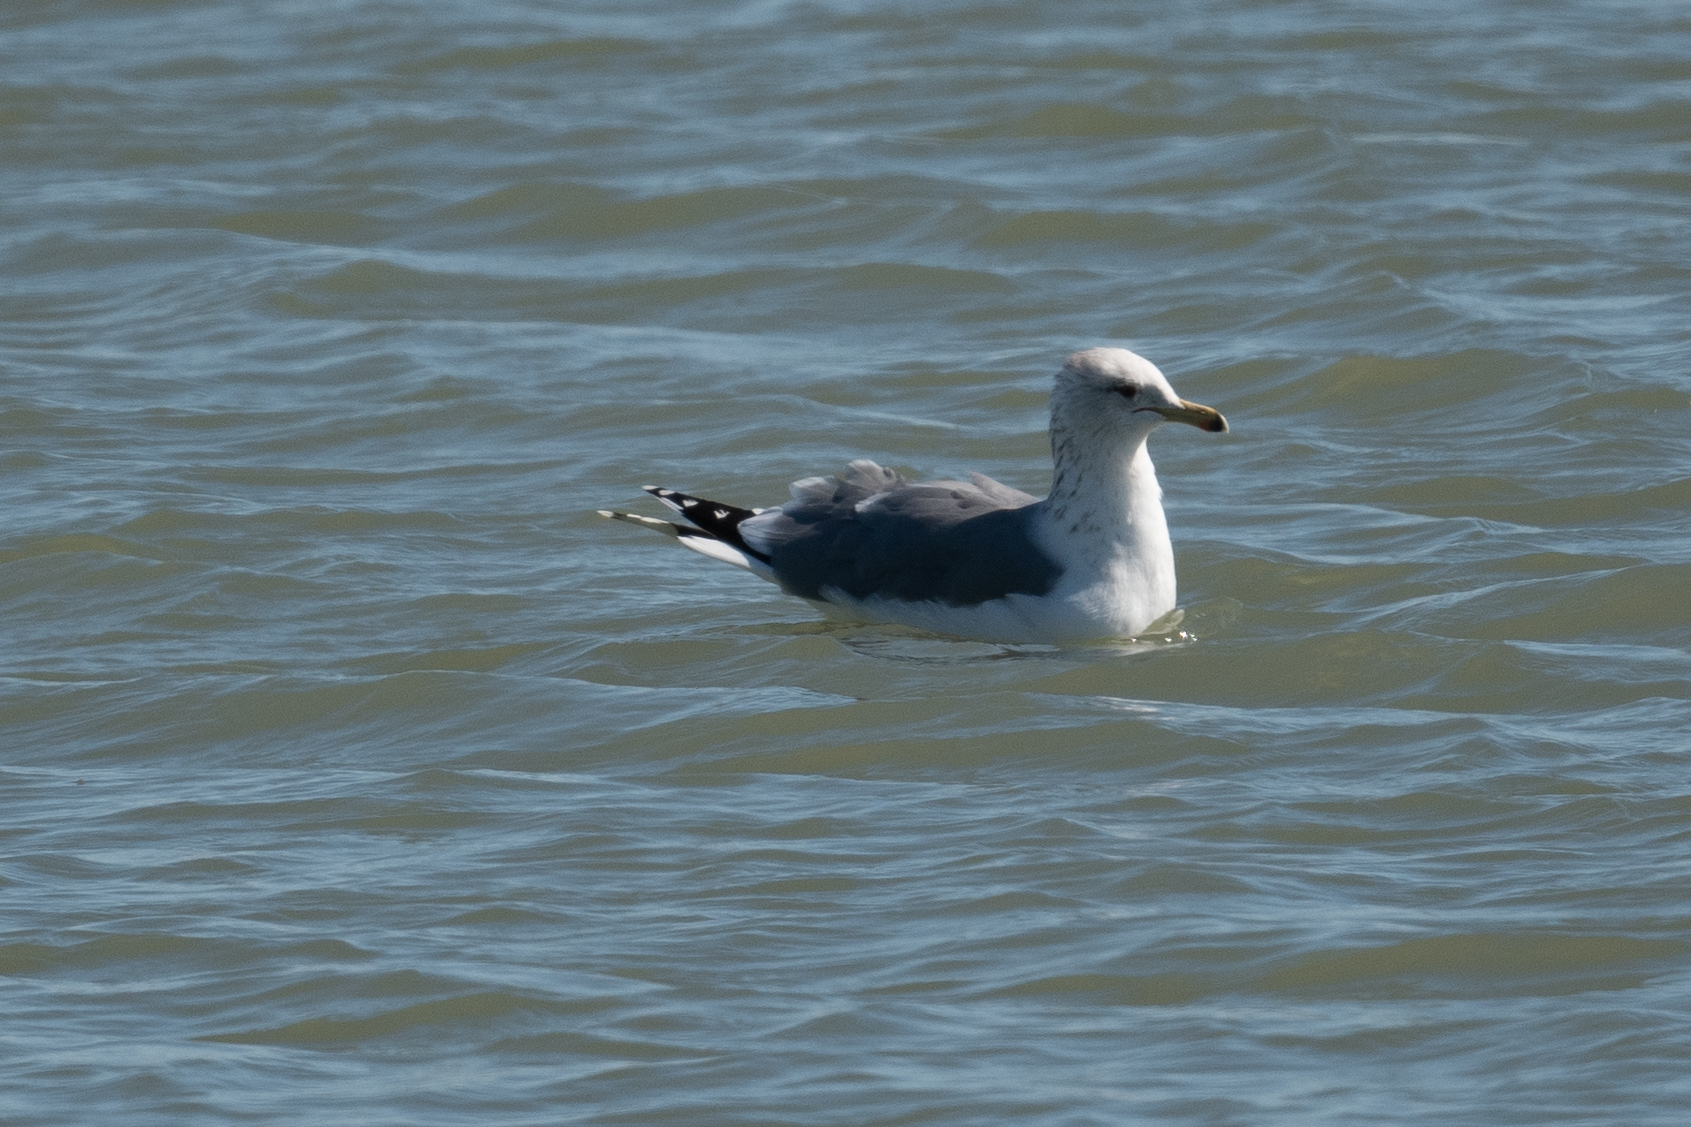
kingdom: Animalia
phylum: Chordata
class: Aves
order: Charadriiformes
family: Laridae
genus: Larus
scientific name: Larus californicus
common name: California gull
